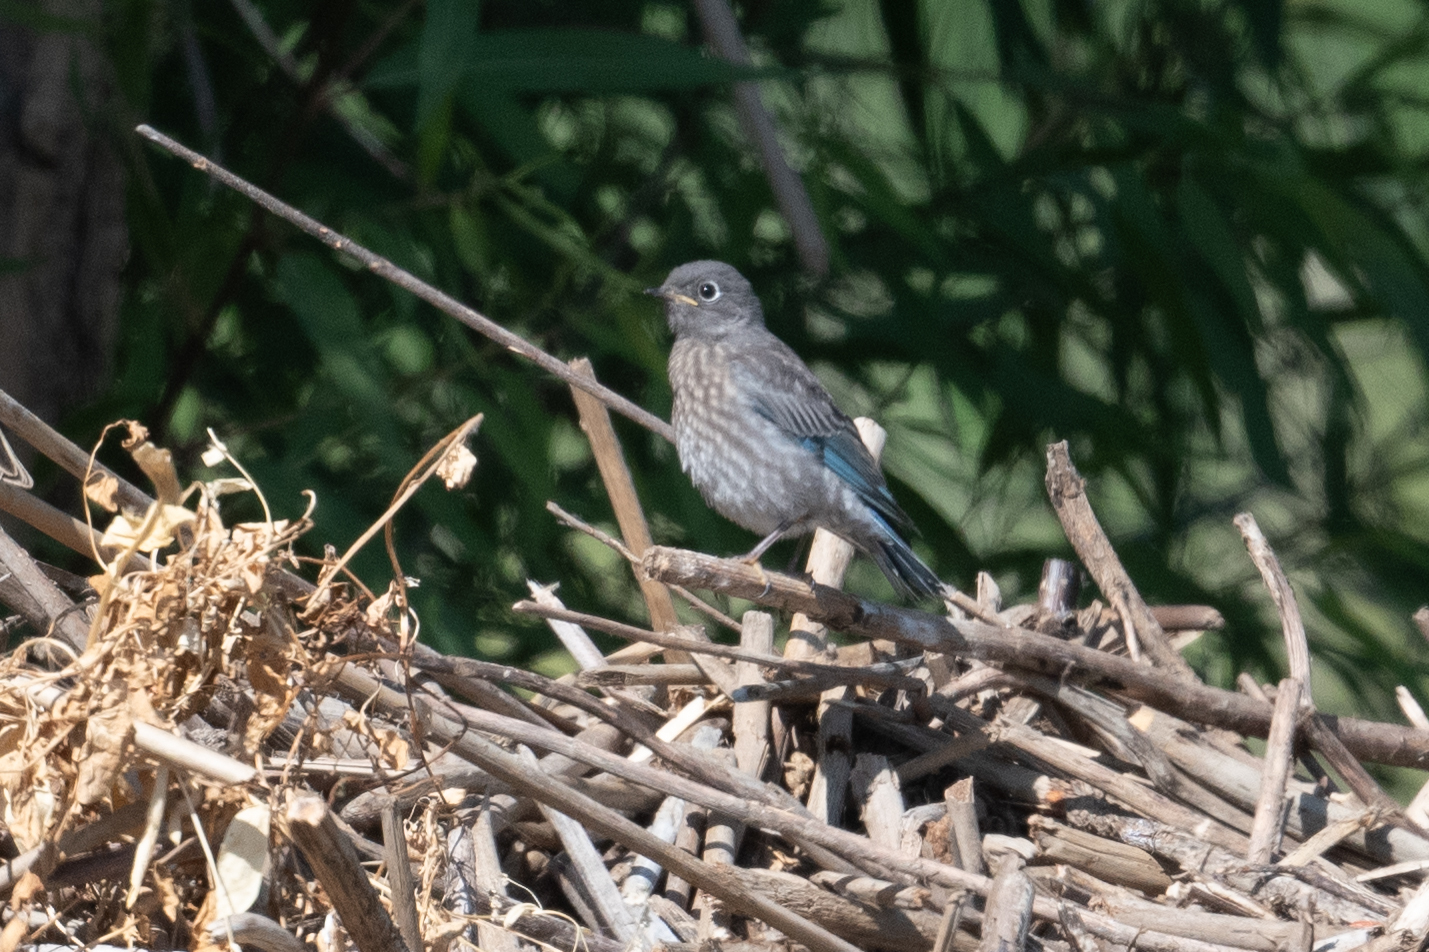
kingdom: Animalia
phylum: Chordata
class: Aves
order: Passeriformes
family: Turdidae
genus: Sialia
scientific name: Sialia mexicana
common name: Western bluebird
